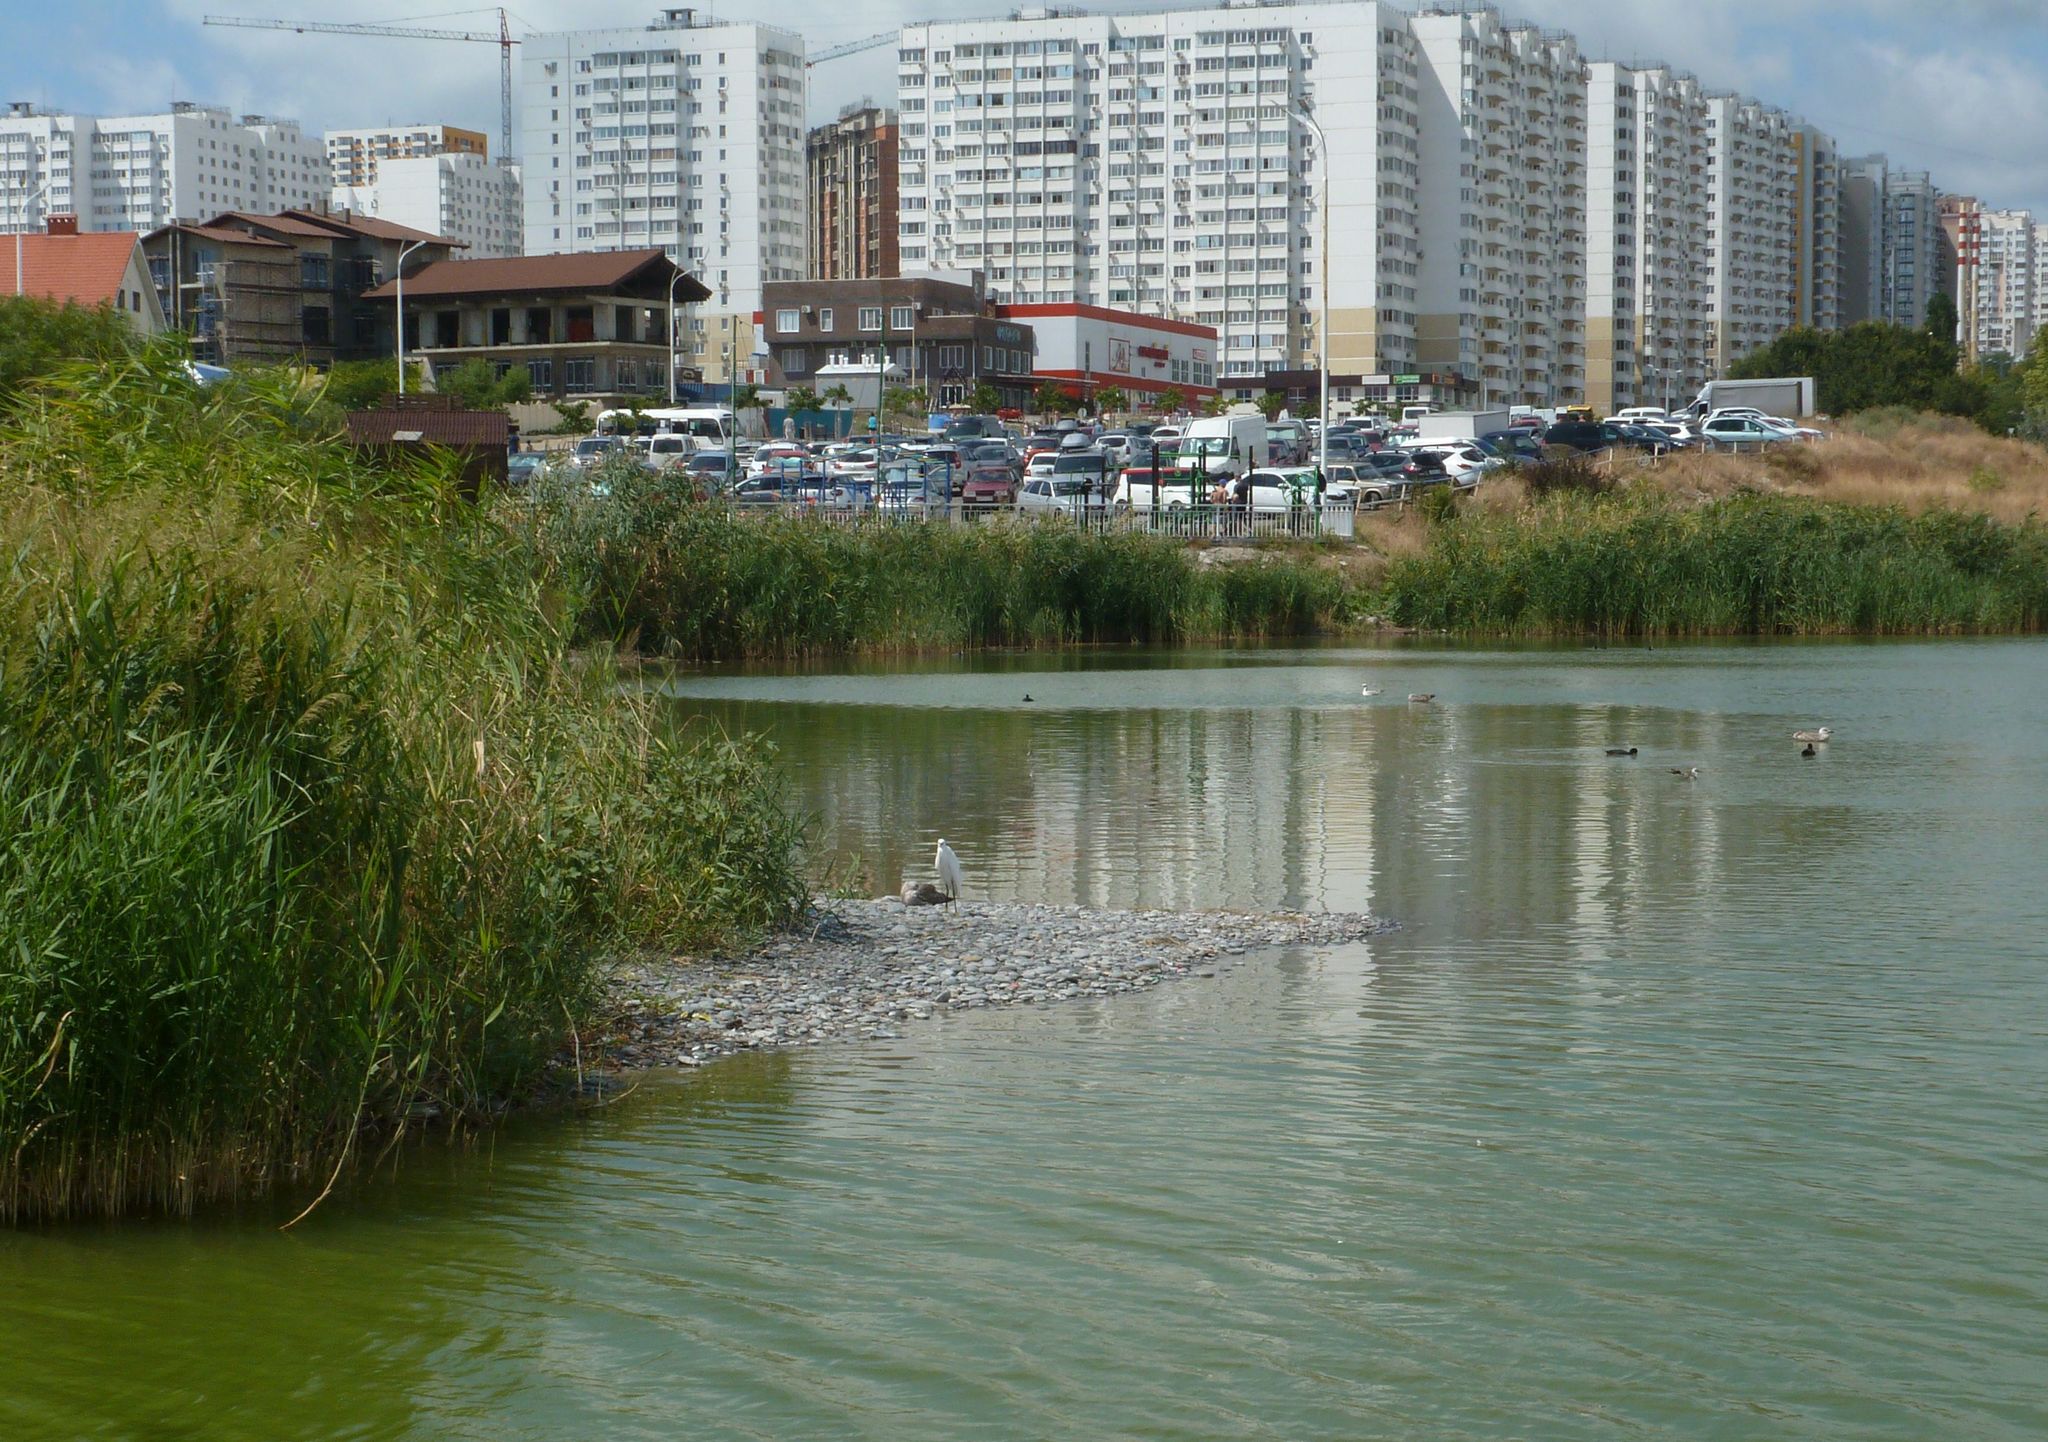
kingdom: Animalia
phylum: Chordata
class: Aves
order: Pelecaniformes
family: Ardeidae
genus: Egretta
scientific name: Egretta garzetta
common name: Little egret
